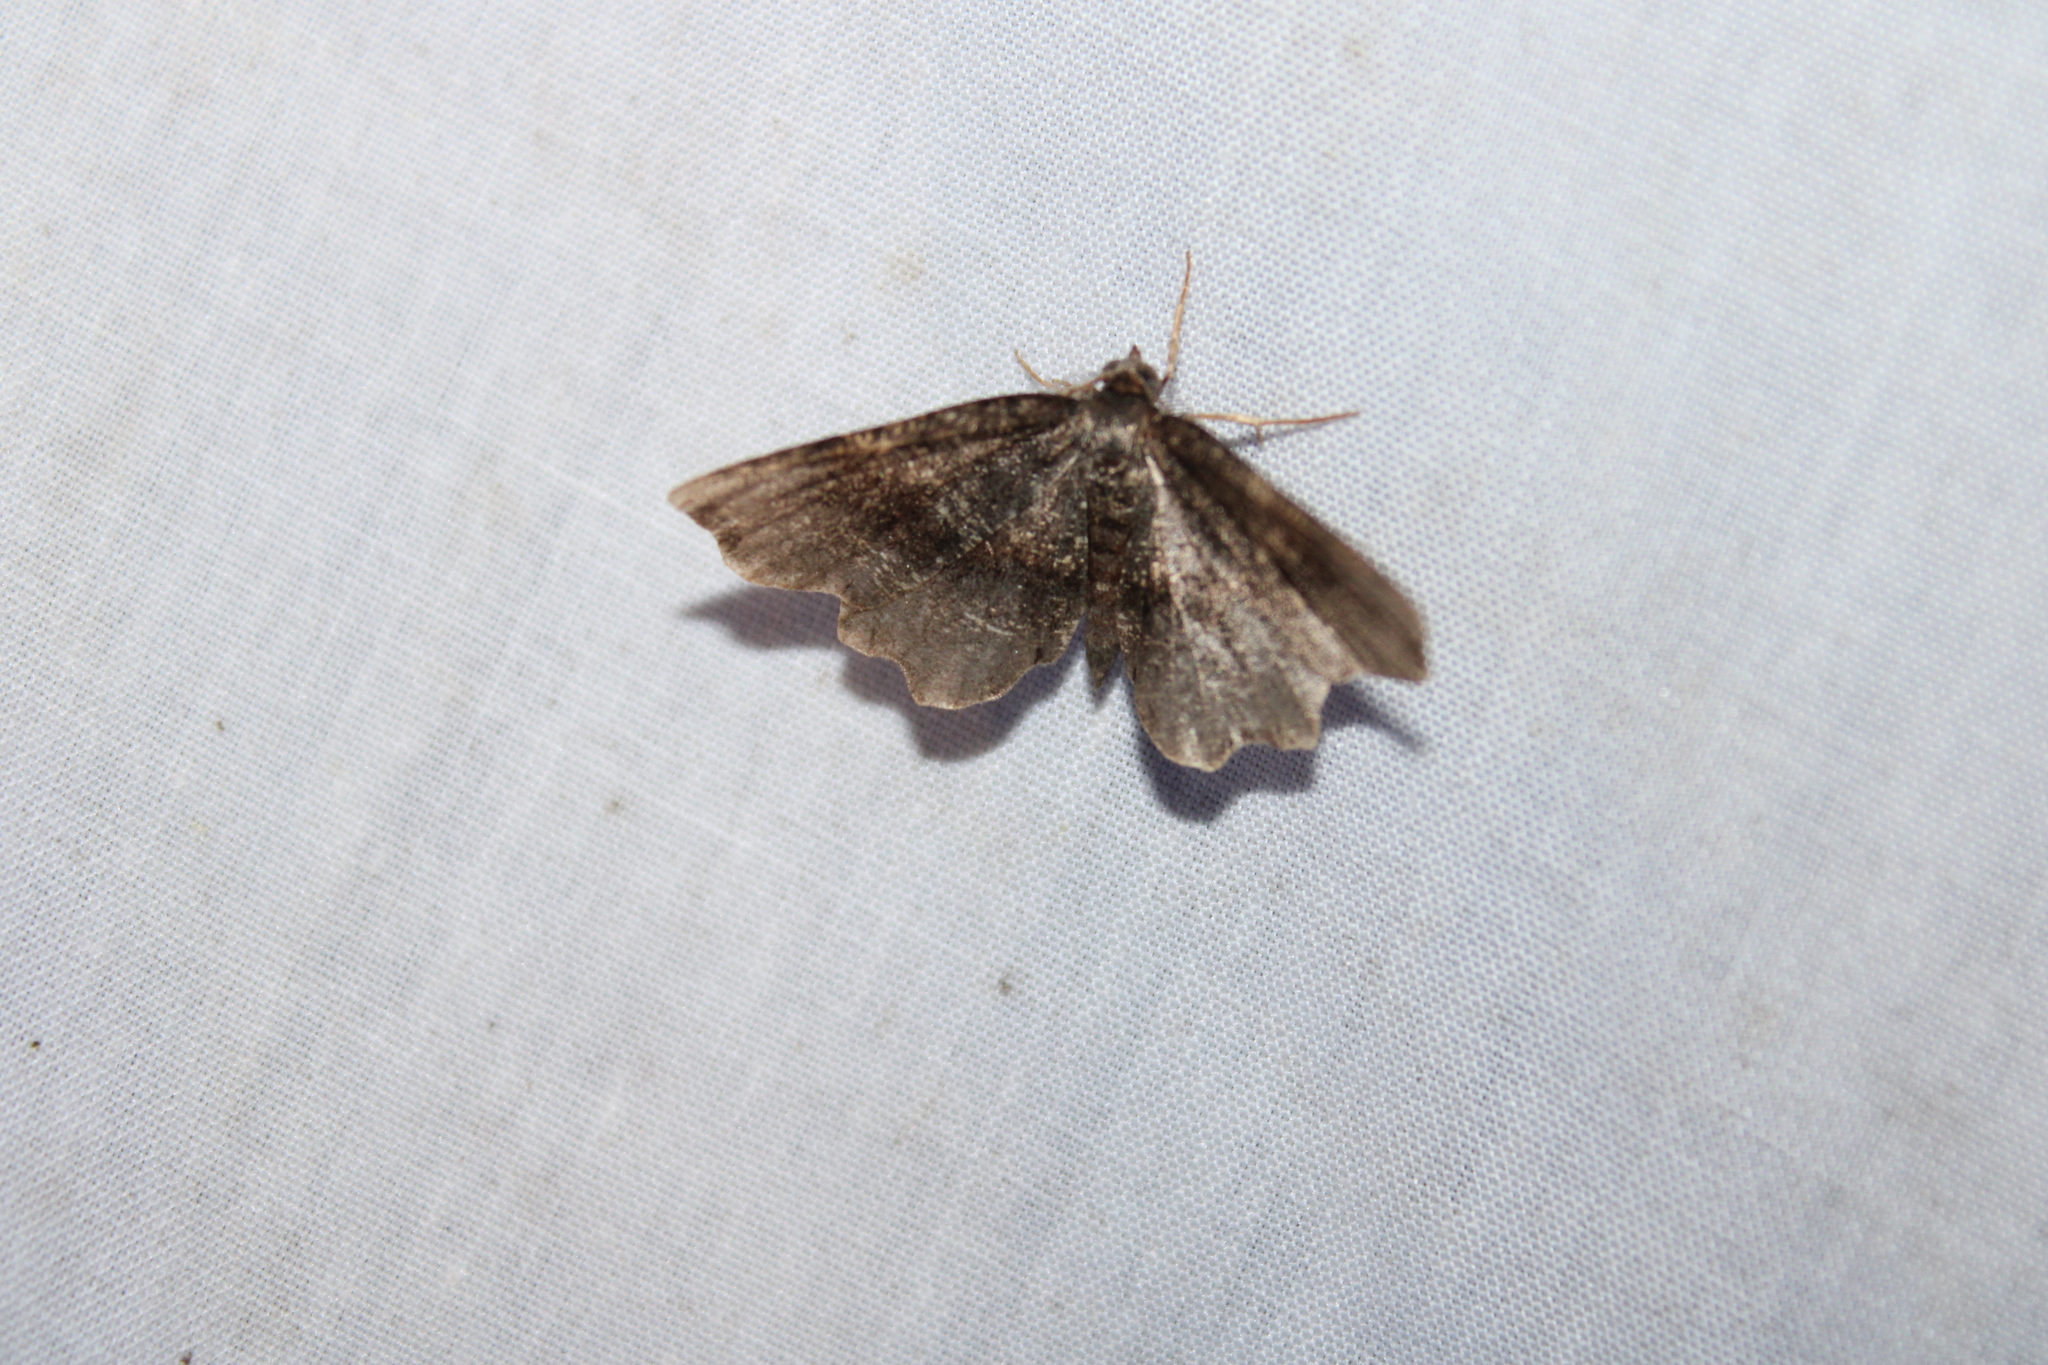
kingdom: Animalia
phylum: Arthropoda
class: Insecta
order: Lepidoptera
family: Geometridae
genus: Cepphis
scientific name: Cepphis decoloraria
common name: Dark scallop moth
